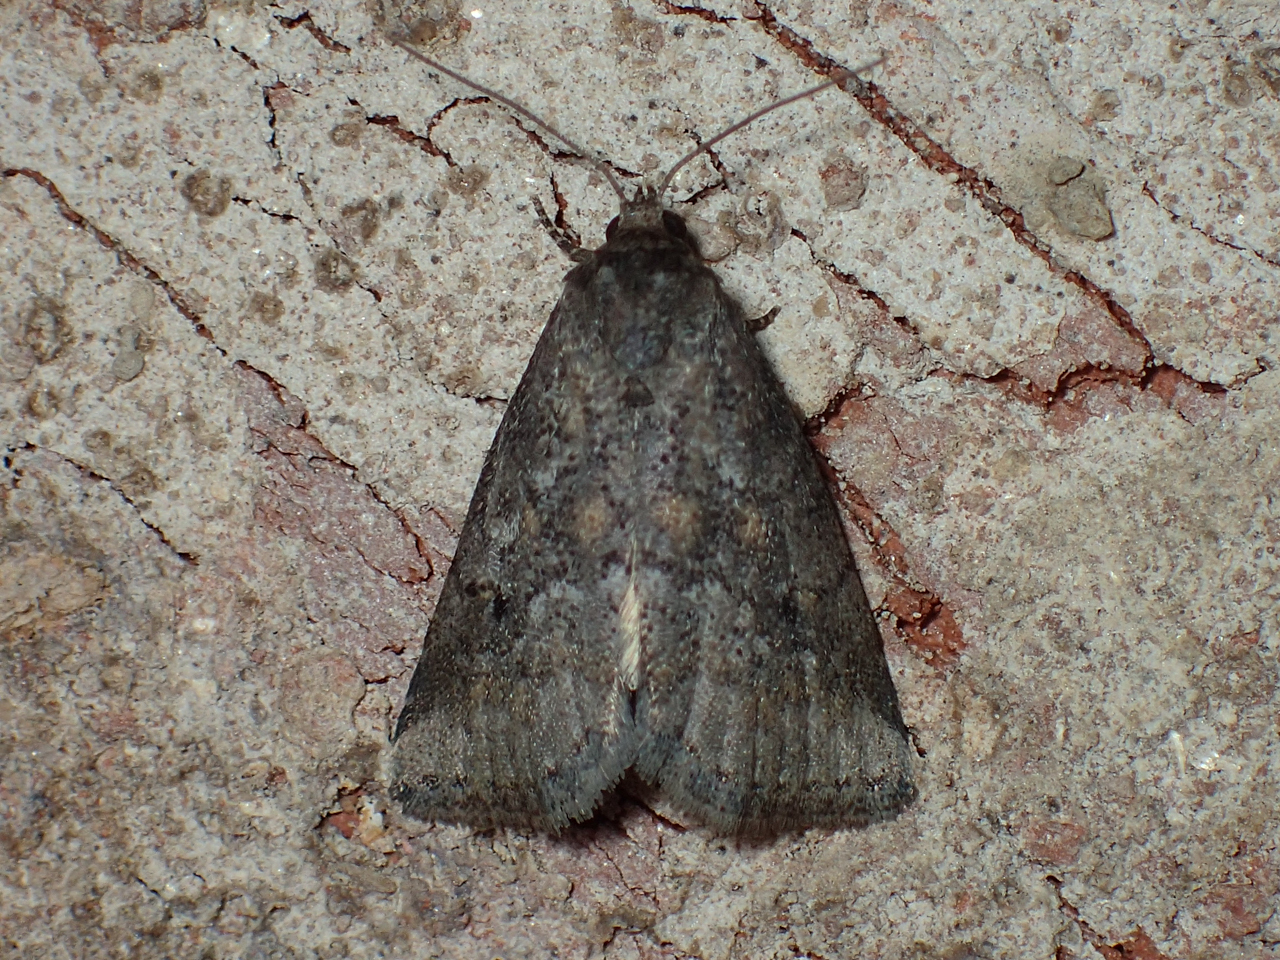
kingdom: Animalia
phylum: Arthropoda
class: Insecta
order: Lepidoptera
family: Erebidae
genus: Hyperstrotia
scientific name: Hyperstrotia nana
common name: White-lined graylet
